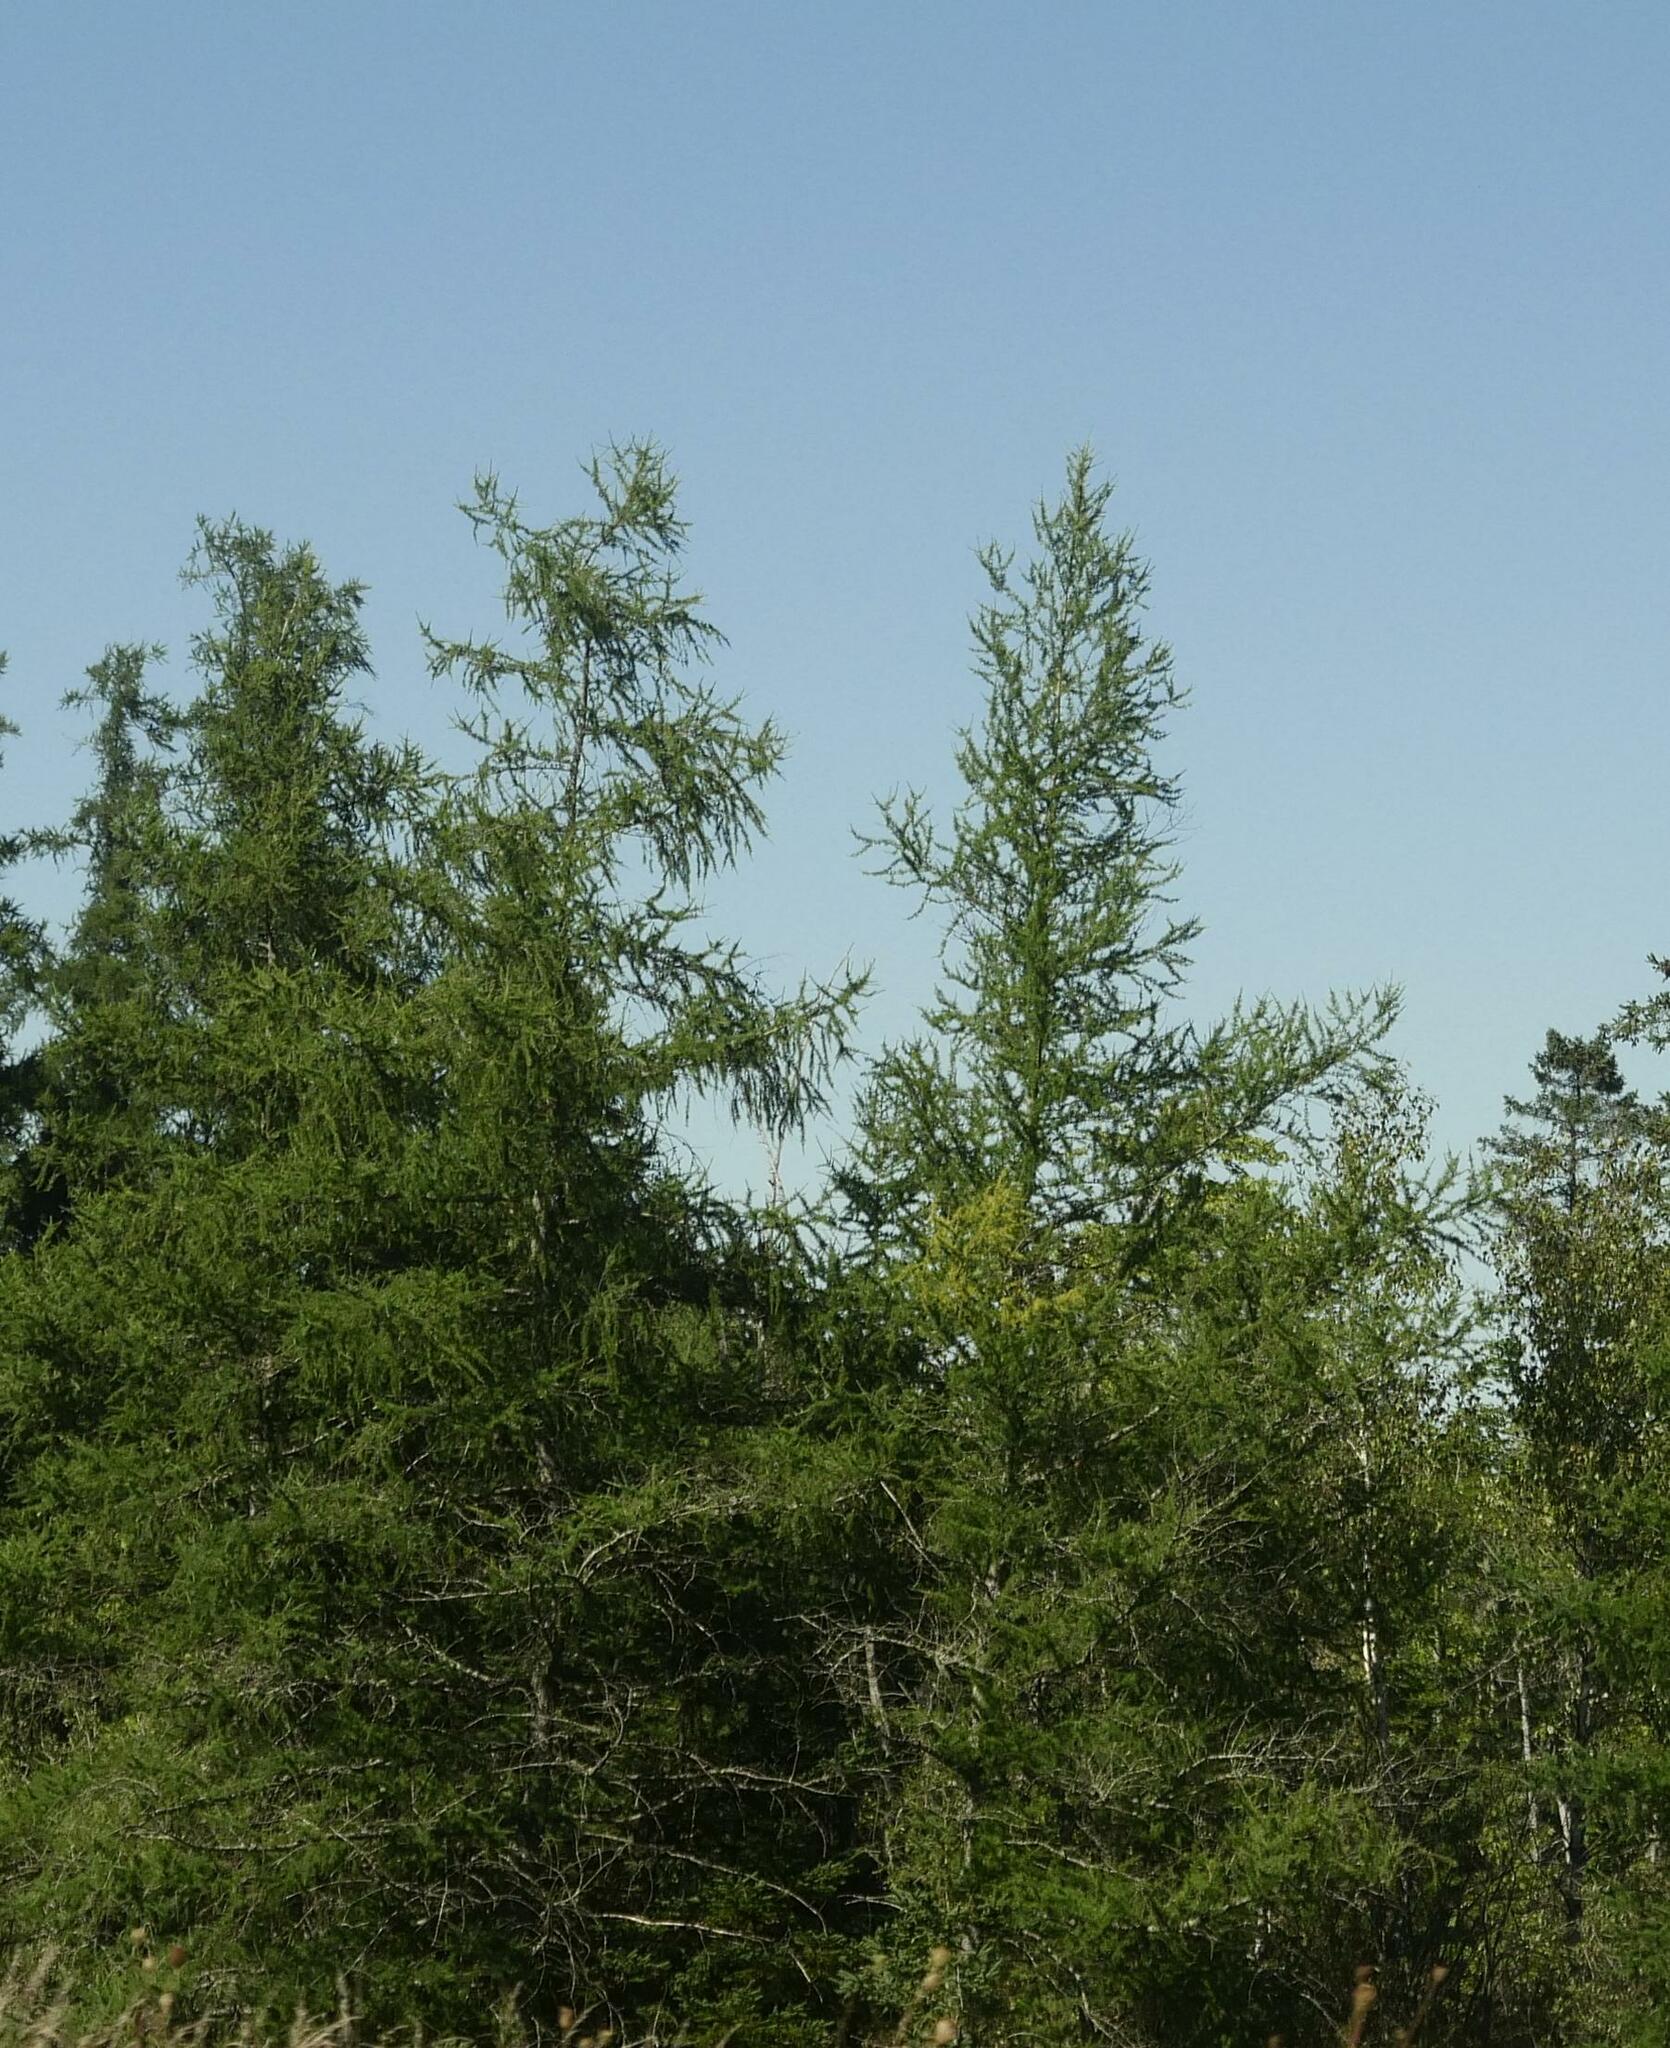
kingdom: Plantae
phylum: Tracheophyta
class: Pinopsida
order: Pinales
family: Pinaceae
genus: Larix
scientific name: Larix laricina
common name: American larch
